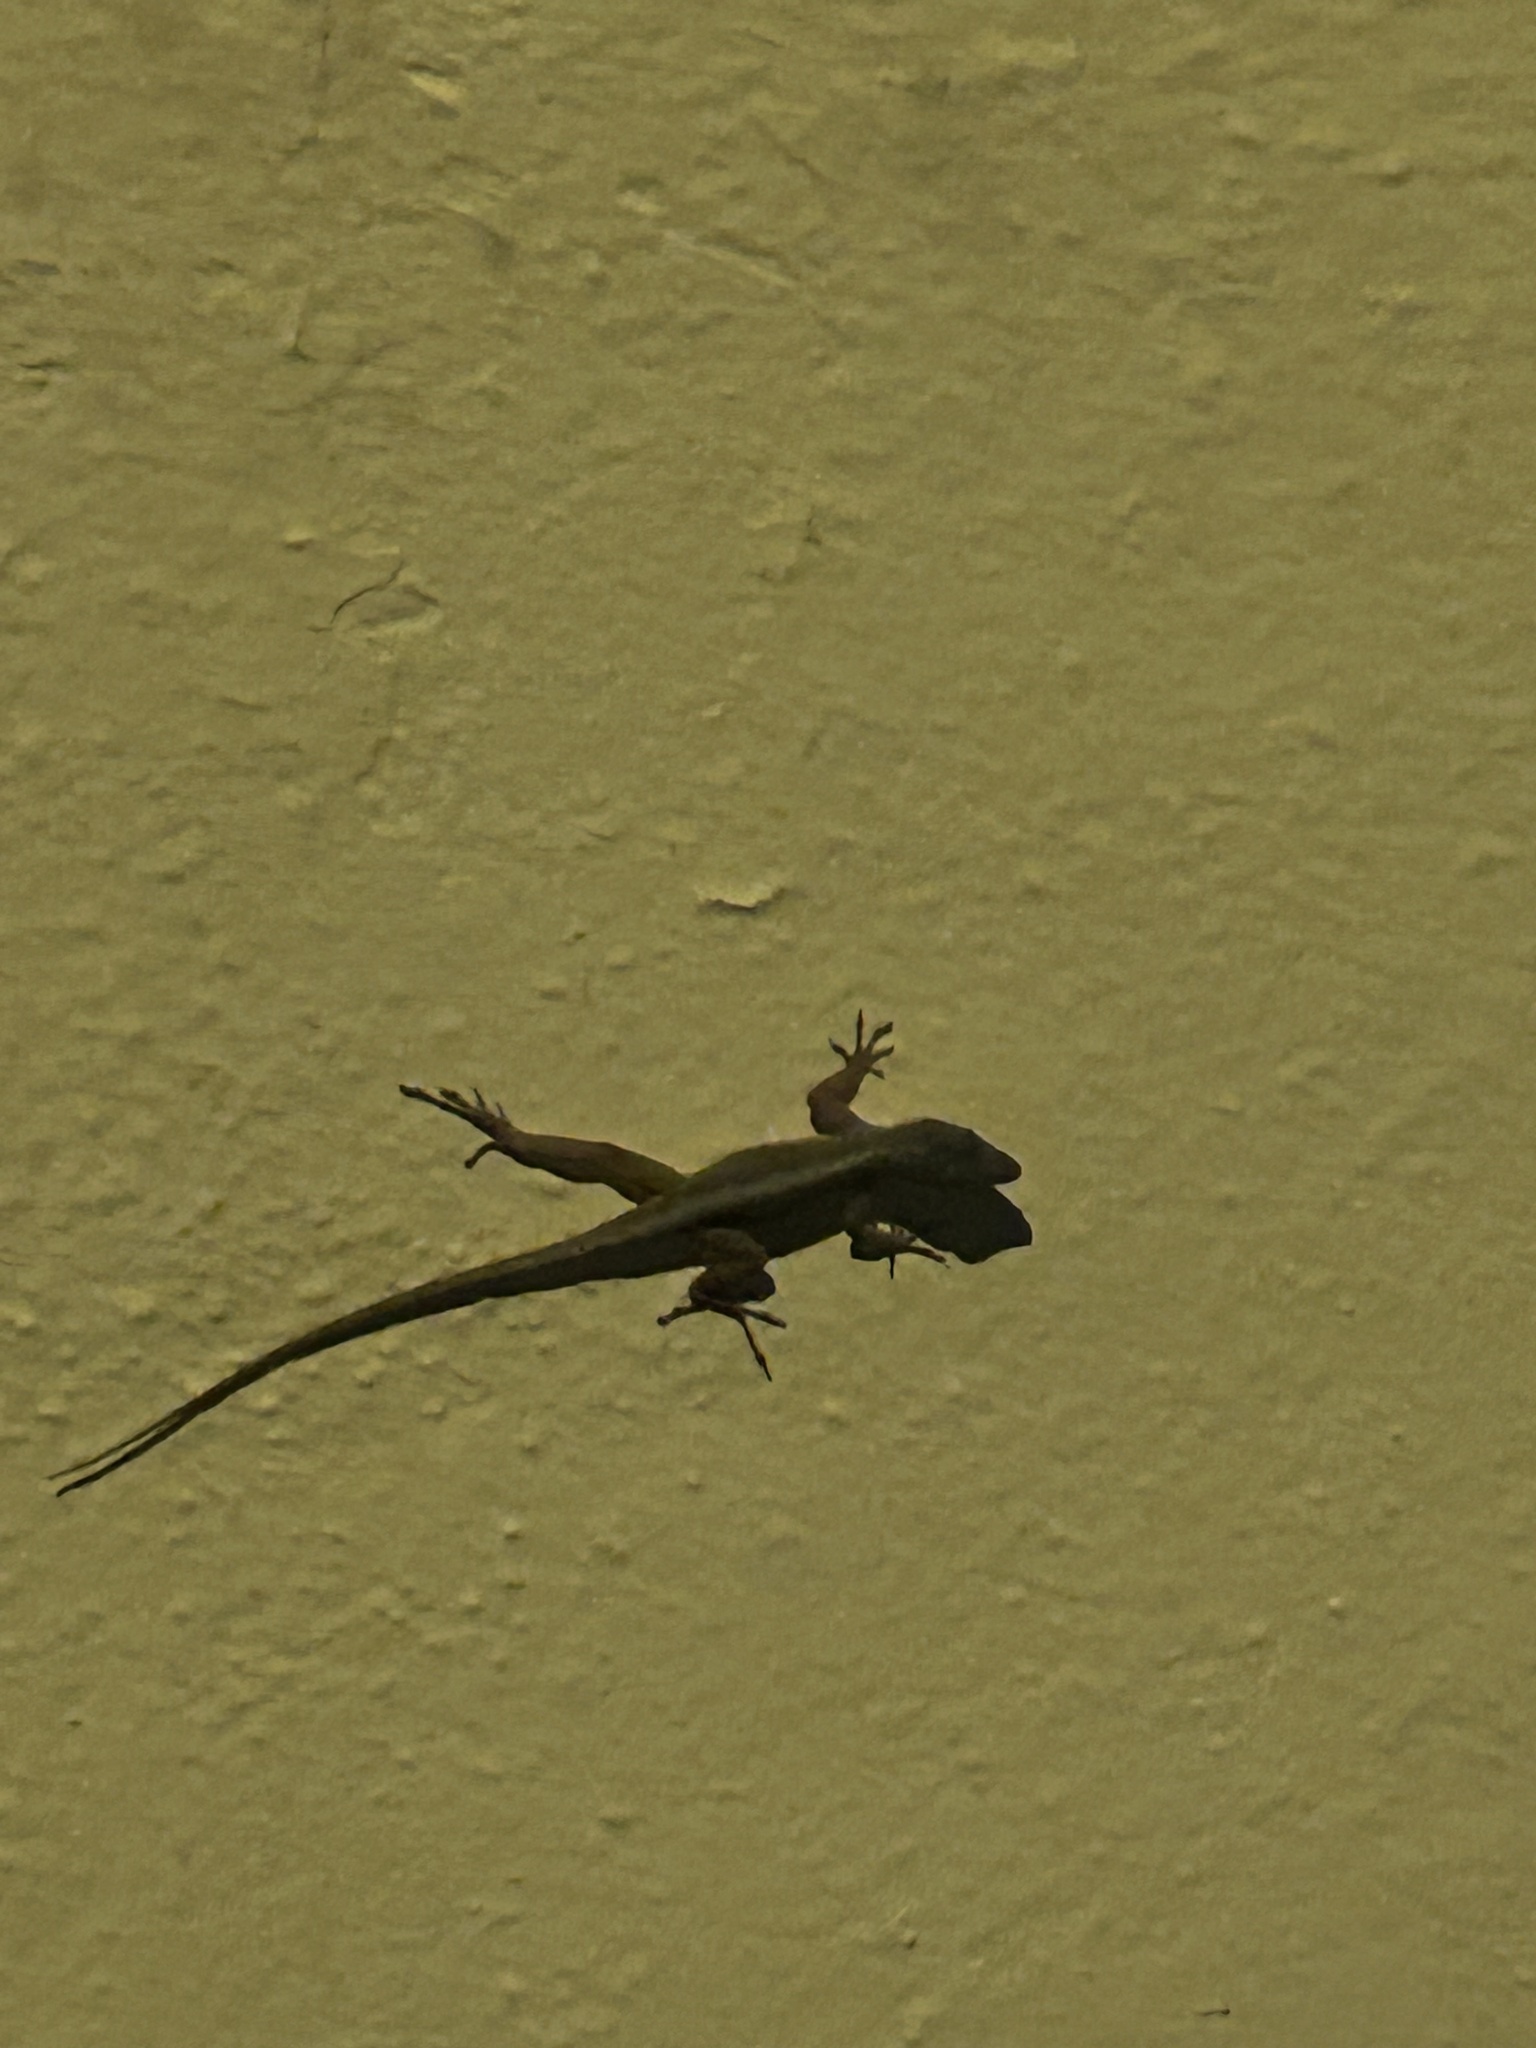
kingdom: Animalia
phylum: Chordata
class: Squamata
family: Dactyloidae
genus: Anolis
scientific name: Anolis nebulosus
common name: Clouded anole
